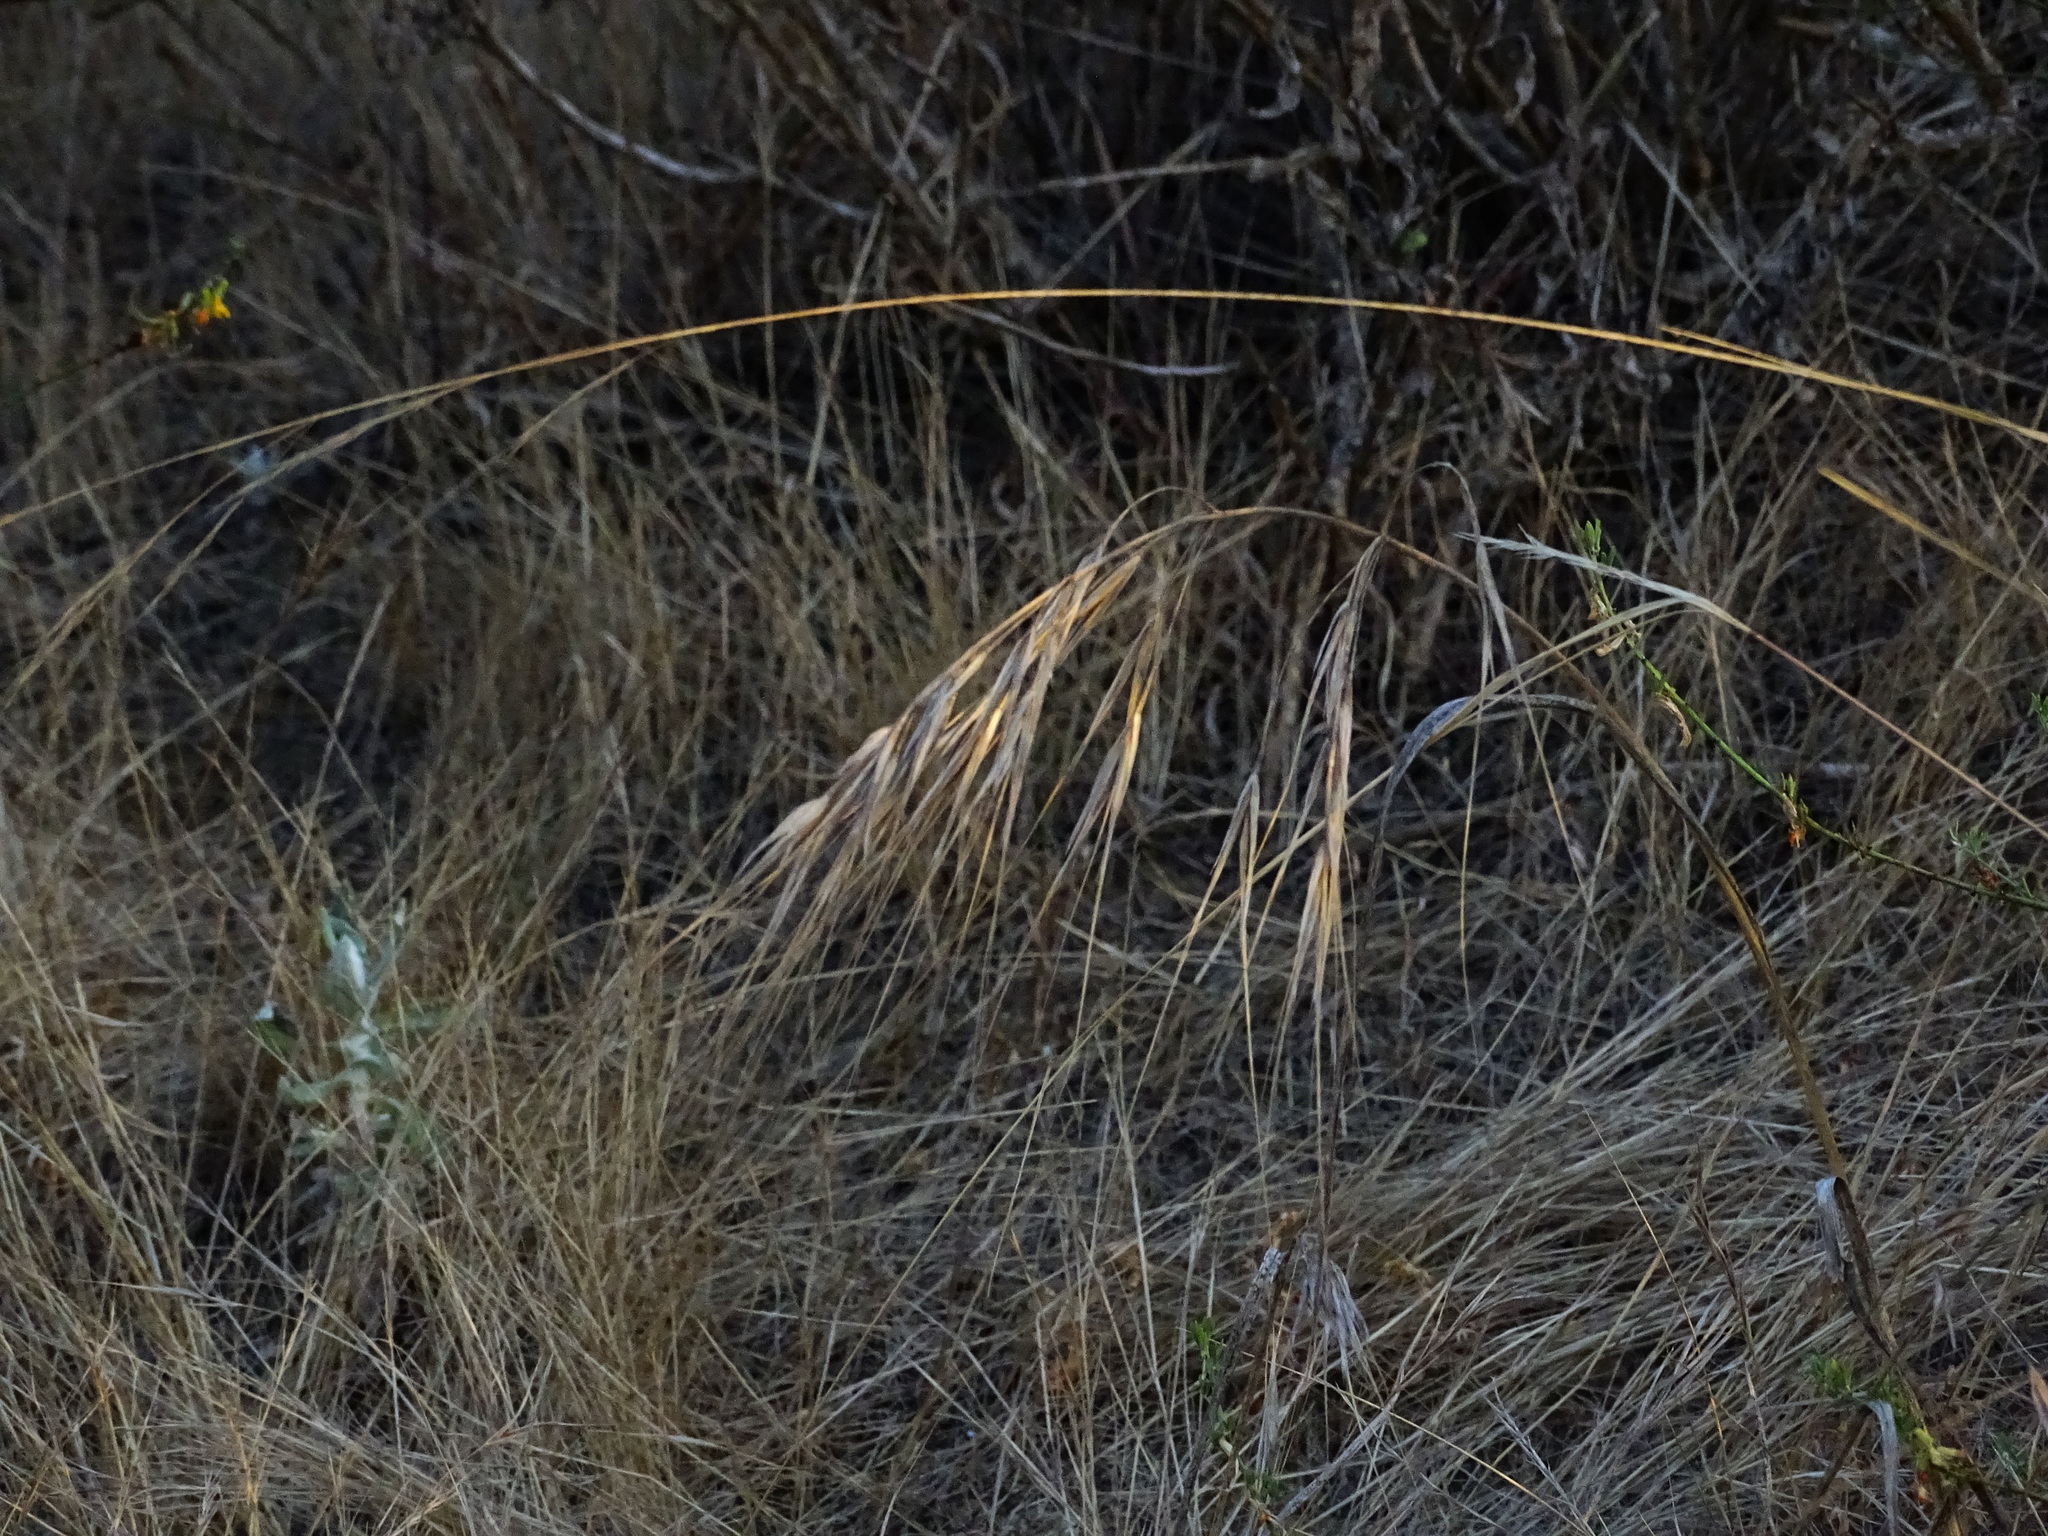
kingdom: Plantae
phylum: Tracheophyta
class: Liliopsida
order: Poales
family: Poaceae
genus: Bromus
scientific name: Bromus diandrus
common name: Ripgut brome
